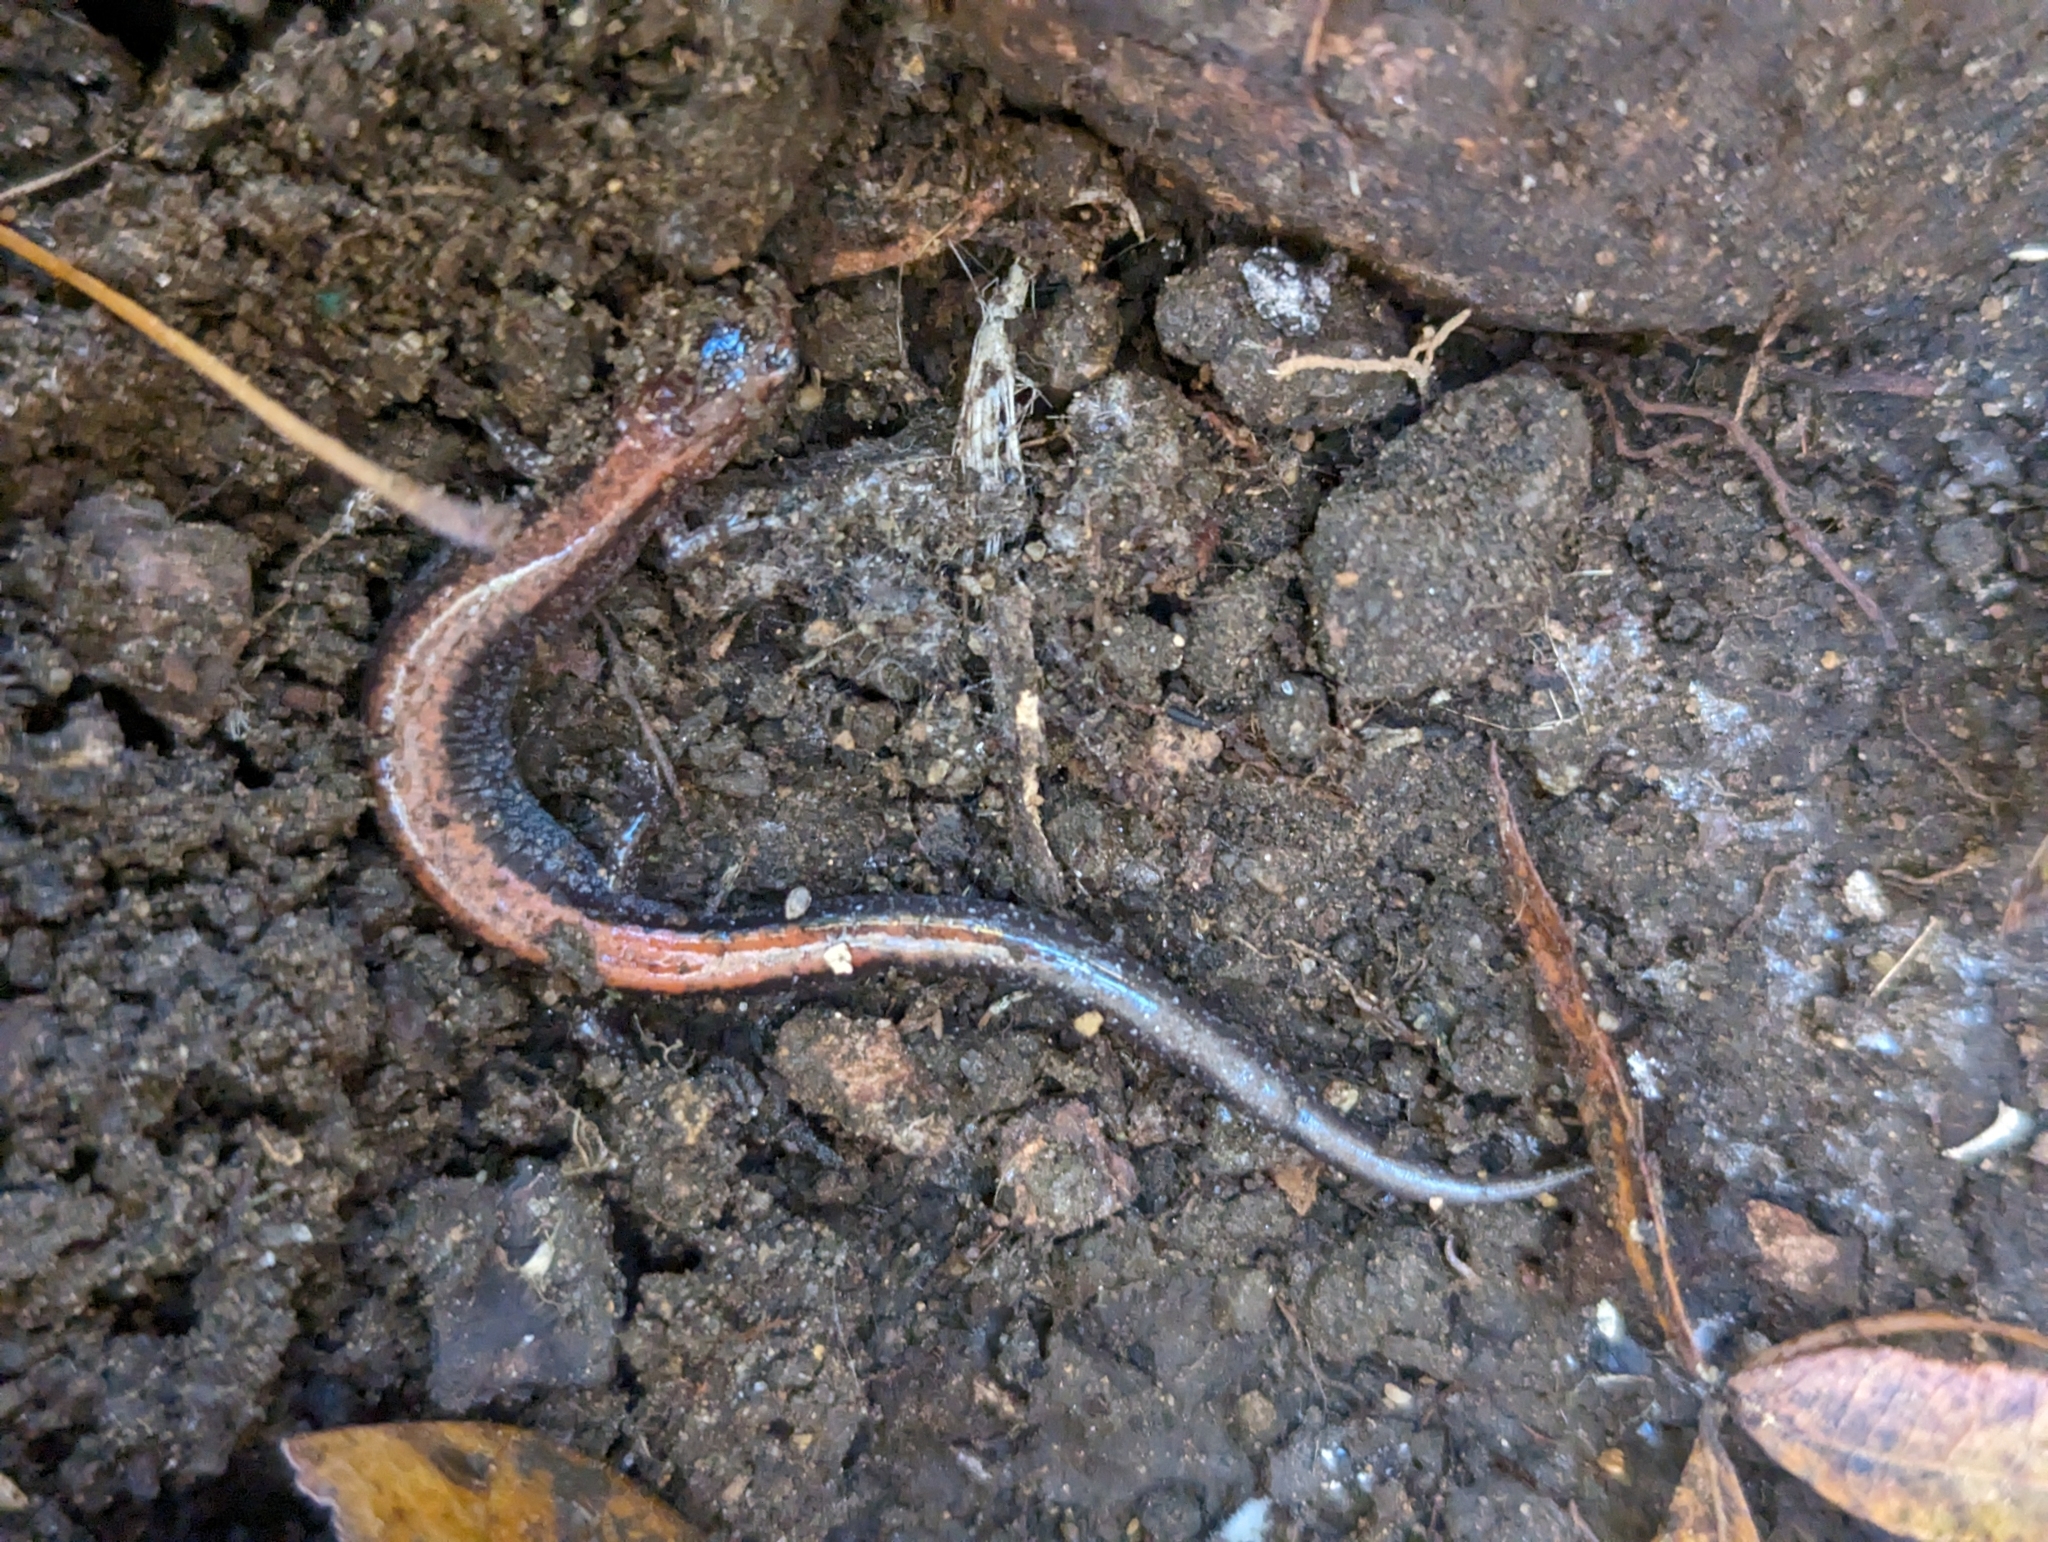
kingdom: Animalia
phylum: Chordata
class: Amphibia
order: Caudata
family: Plethodontidae
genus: Plethodon
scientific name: Plethodon cinereus
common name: Redback salamander
